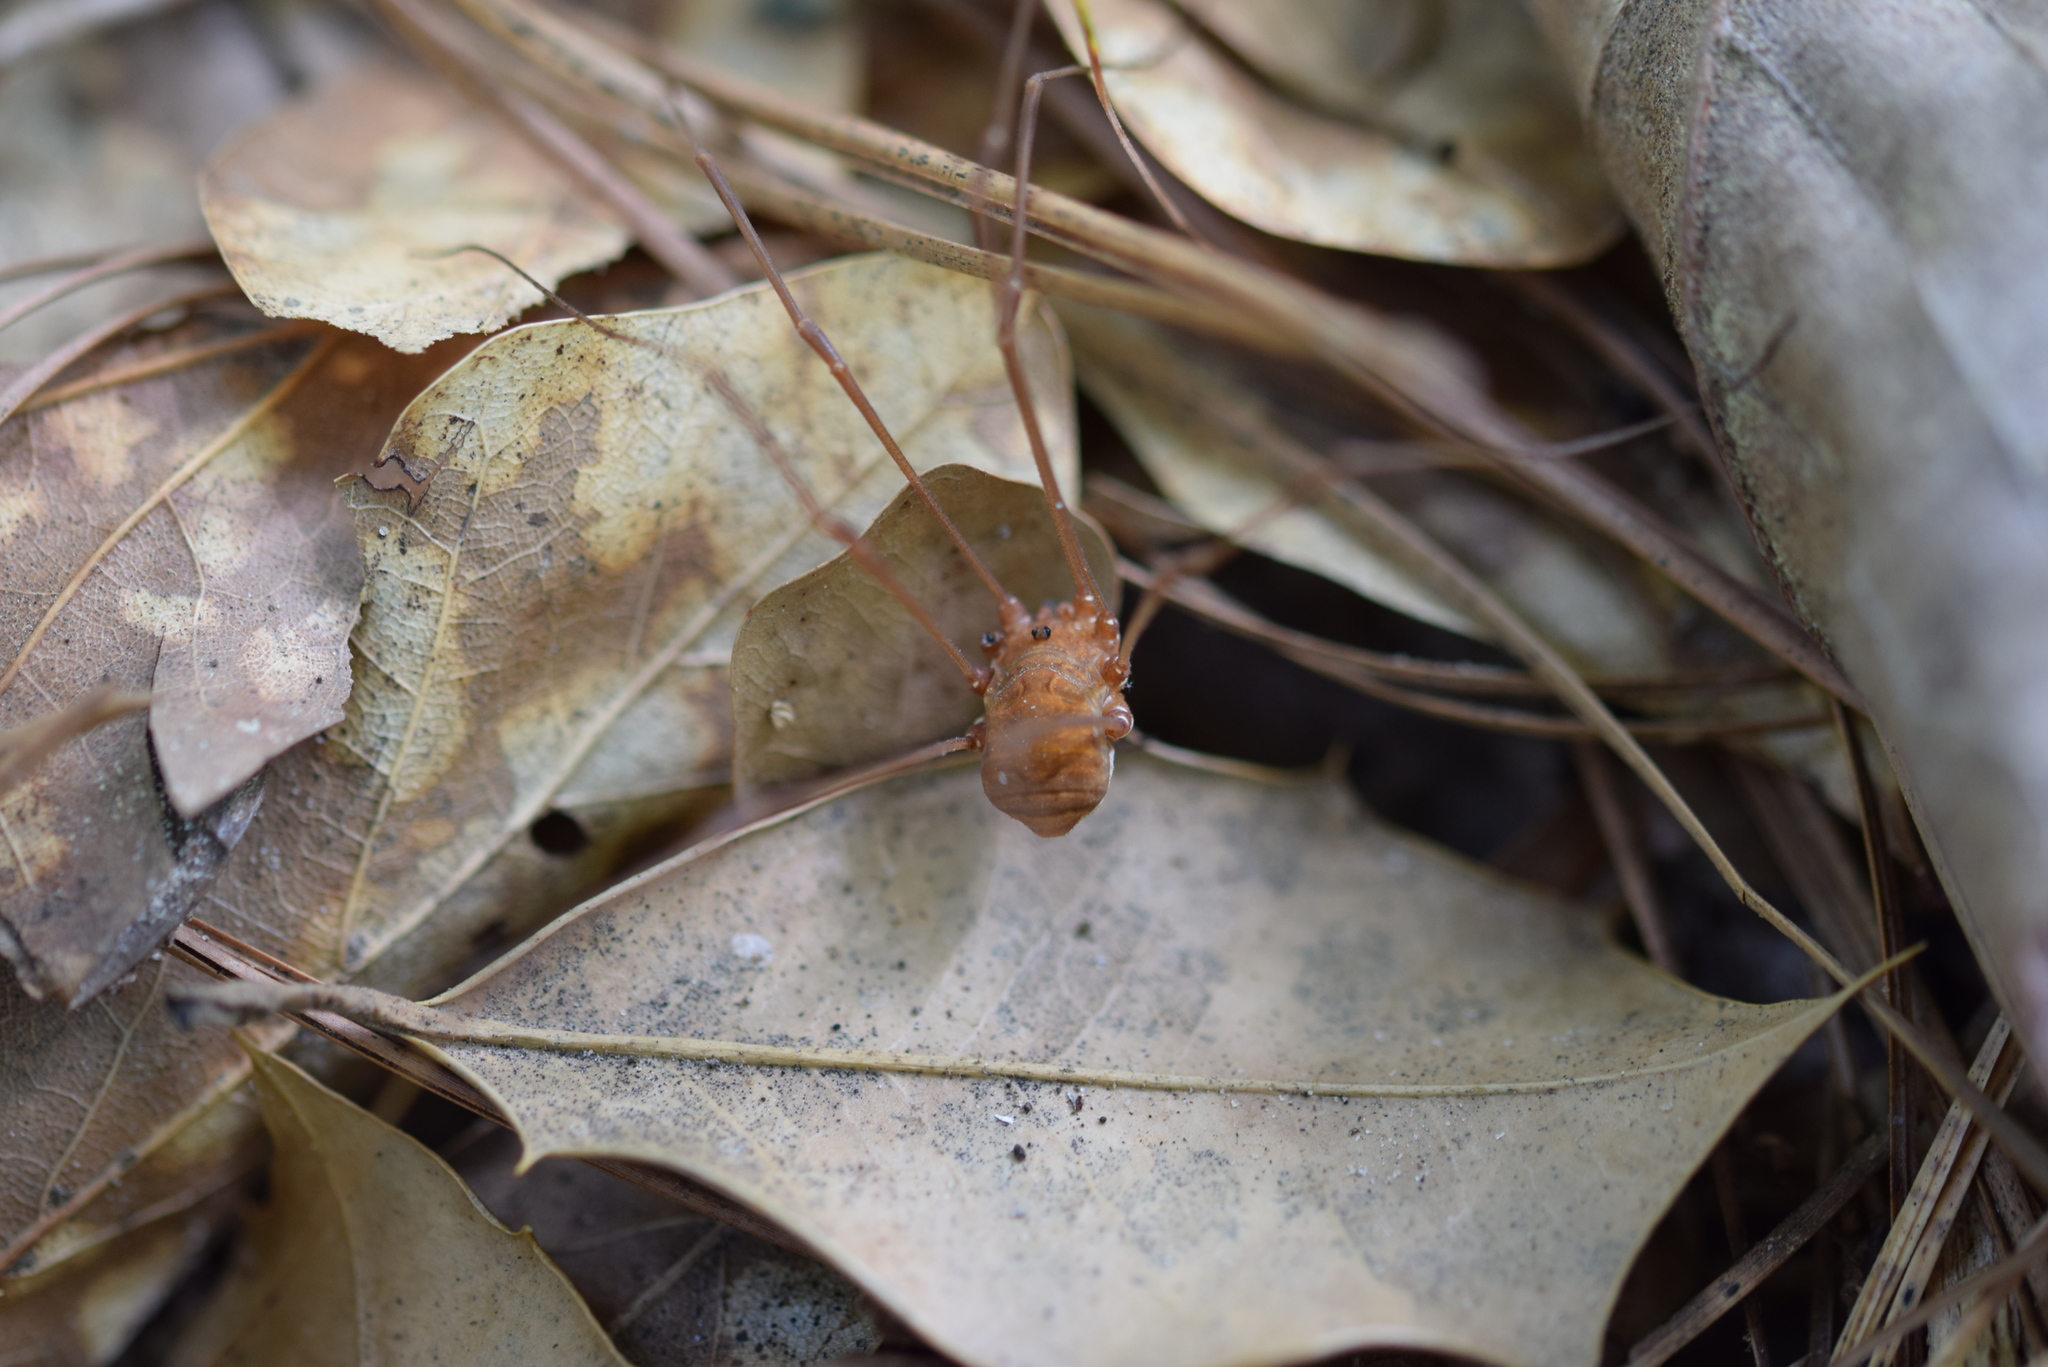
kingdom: Animalia
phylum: Arthropoda
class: Arachnida
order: Opiliones
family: Sclerosomatidae
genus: Leiobunum
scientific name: Leiobunum flavum
